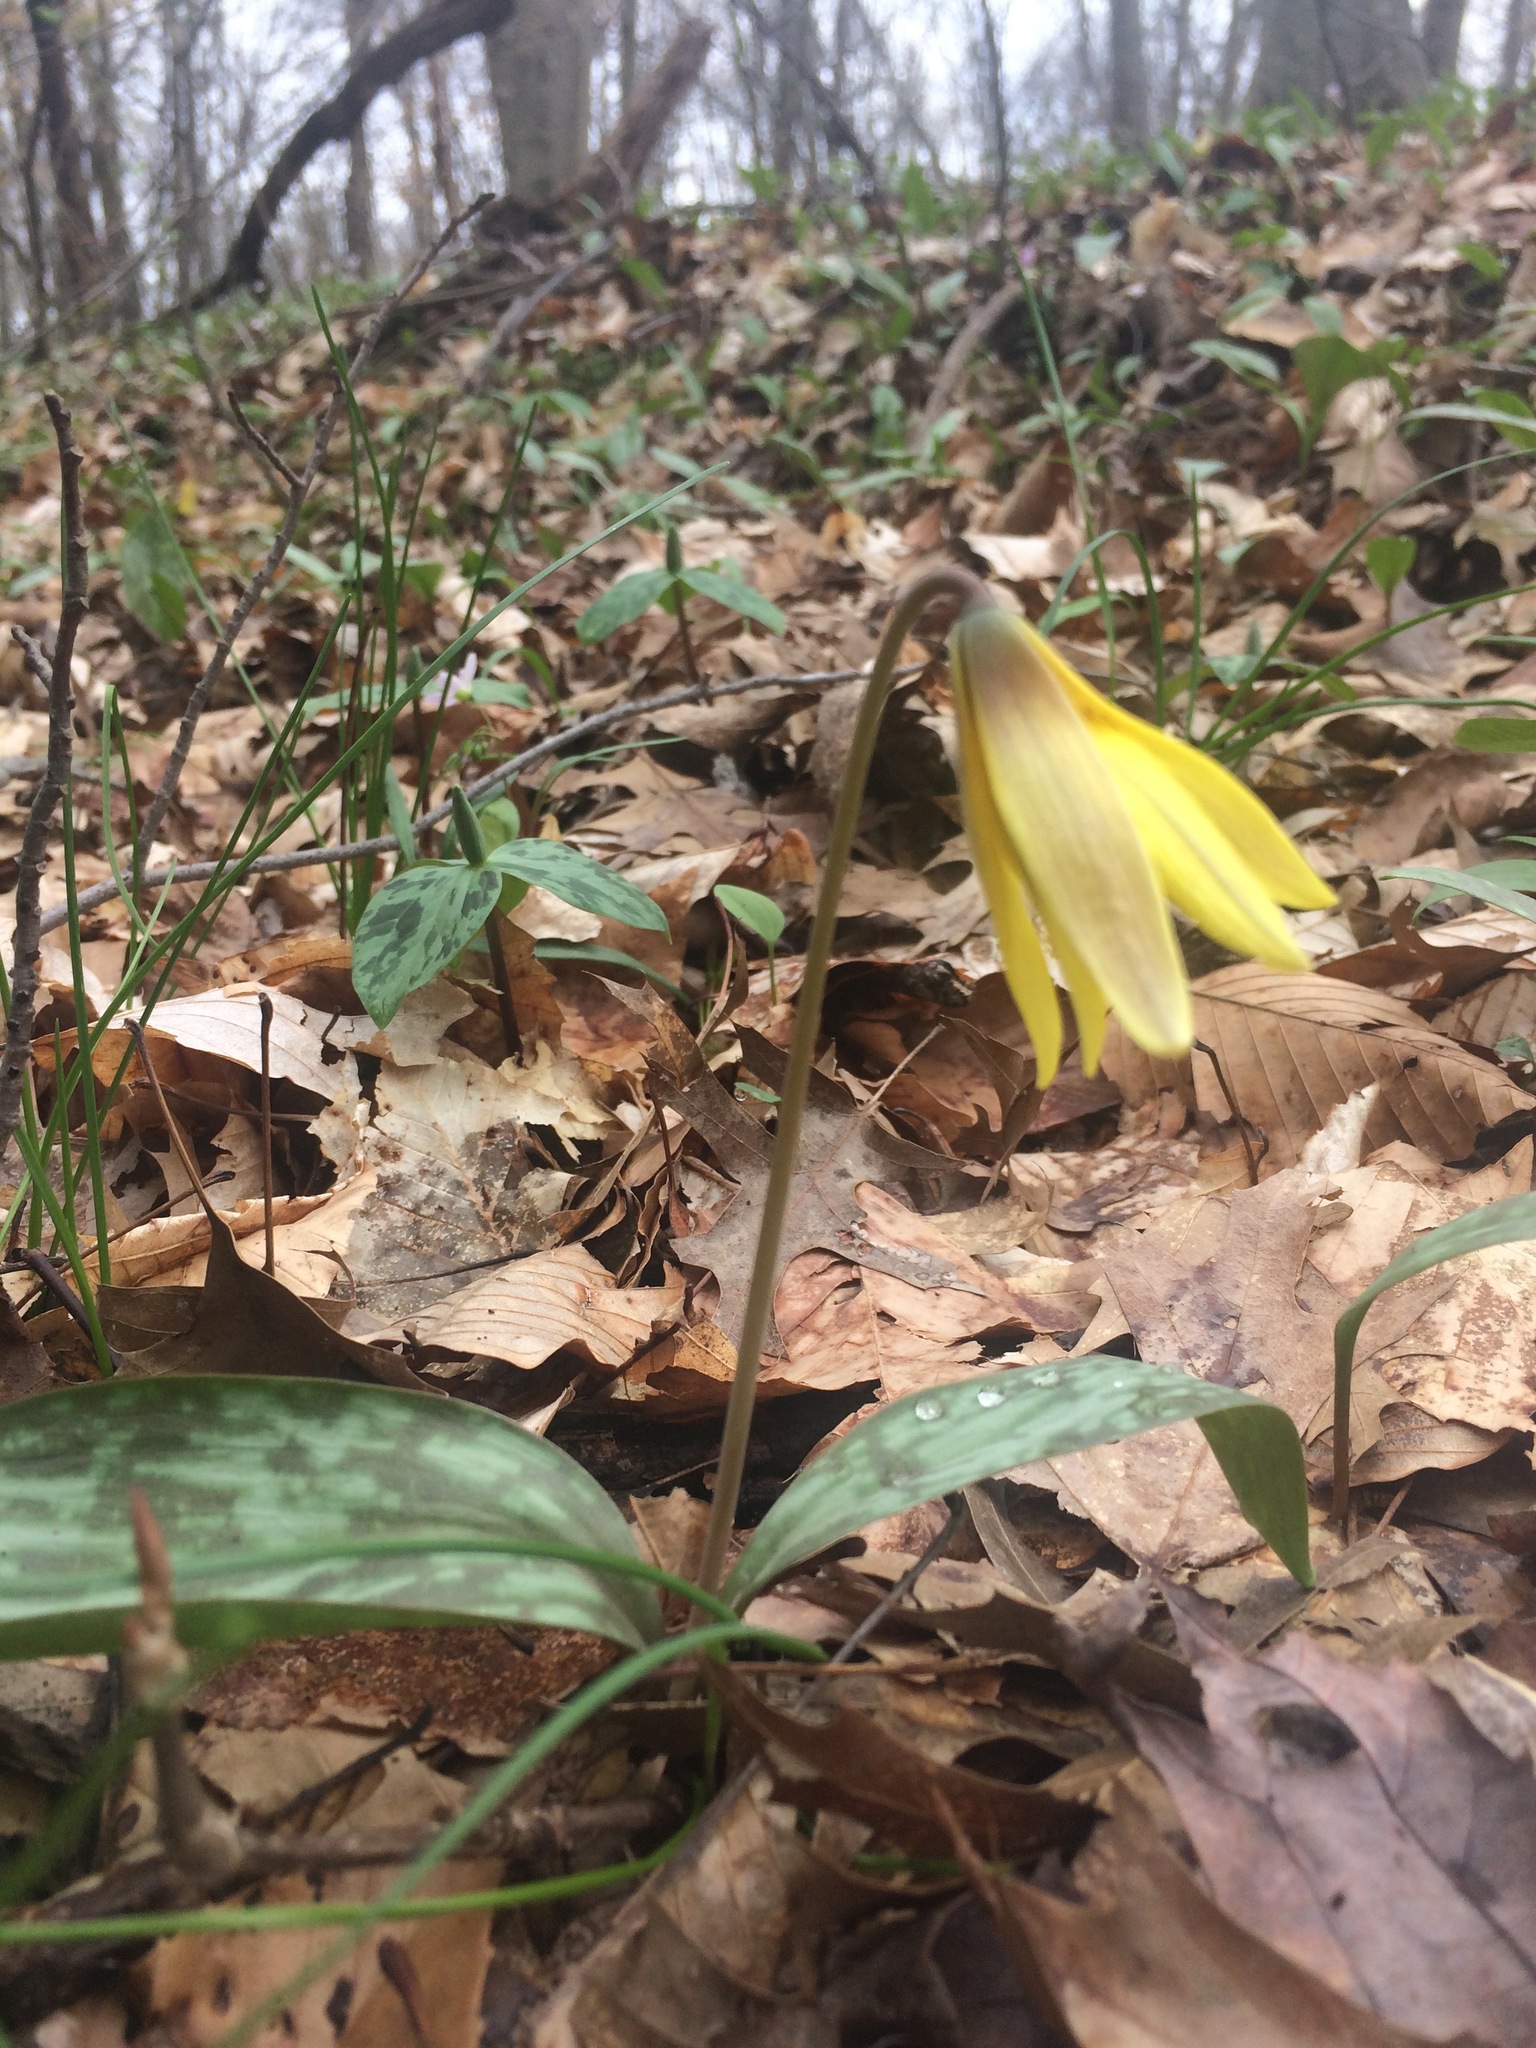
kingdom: Plantae
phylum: Tracheophyta
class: Liliopsida
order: Liliales
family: Liliaceae
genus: Erythronium
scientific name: Erythronium americanum
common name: Yellow adder's-tongue
